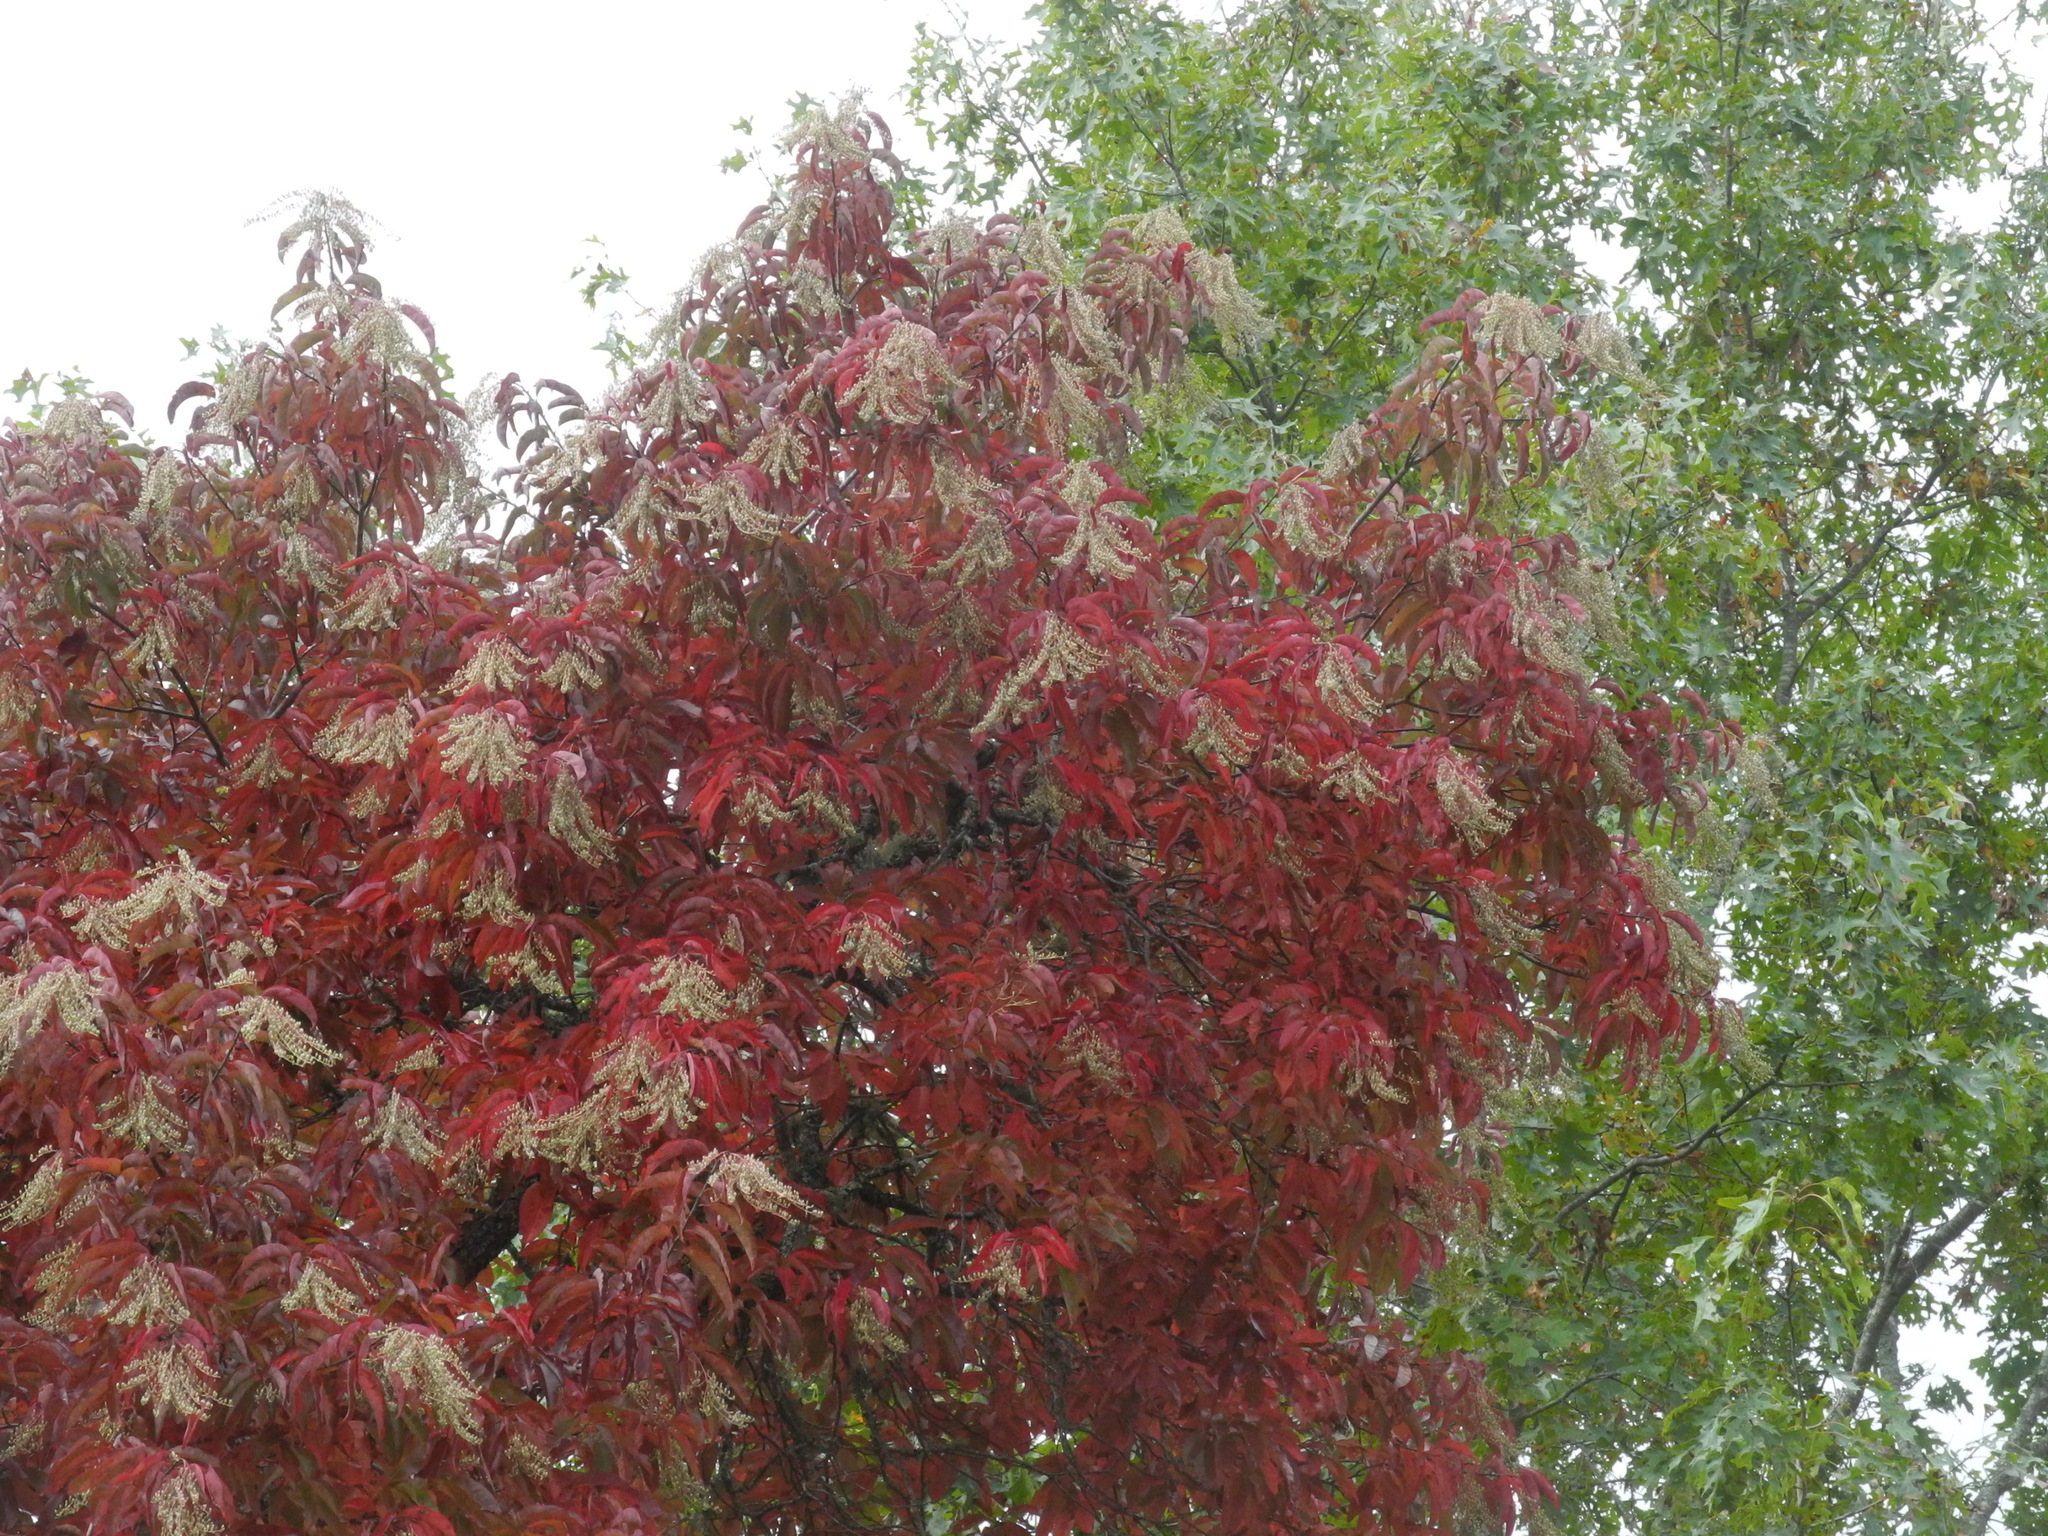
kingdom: Plantae
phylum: Tracheophyta
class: Magnoliopsida
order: Ericales
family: Ericaceae
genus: Oxydendrum
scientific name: Oxydendrum arboreum
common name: Sourwood
